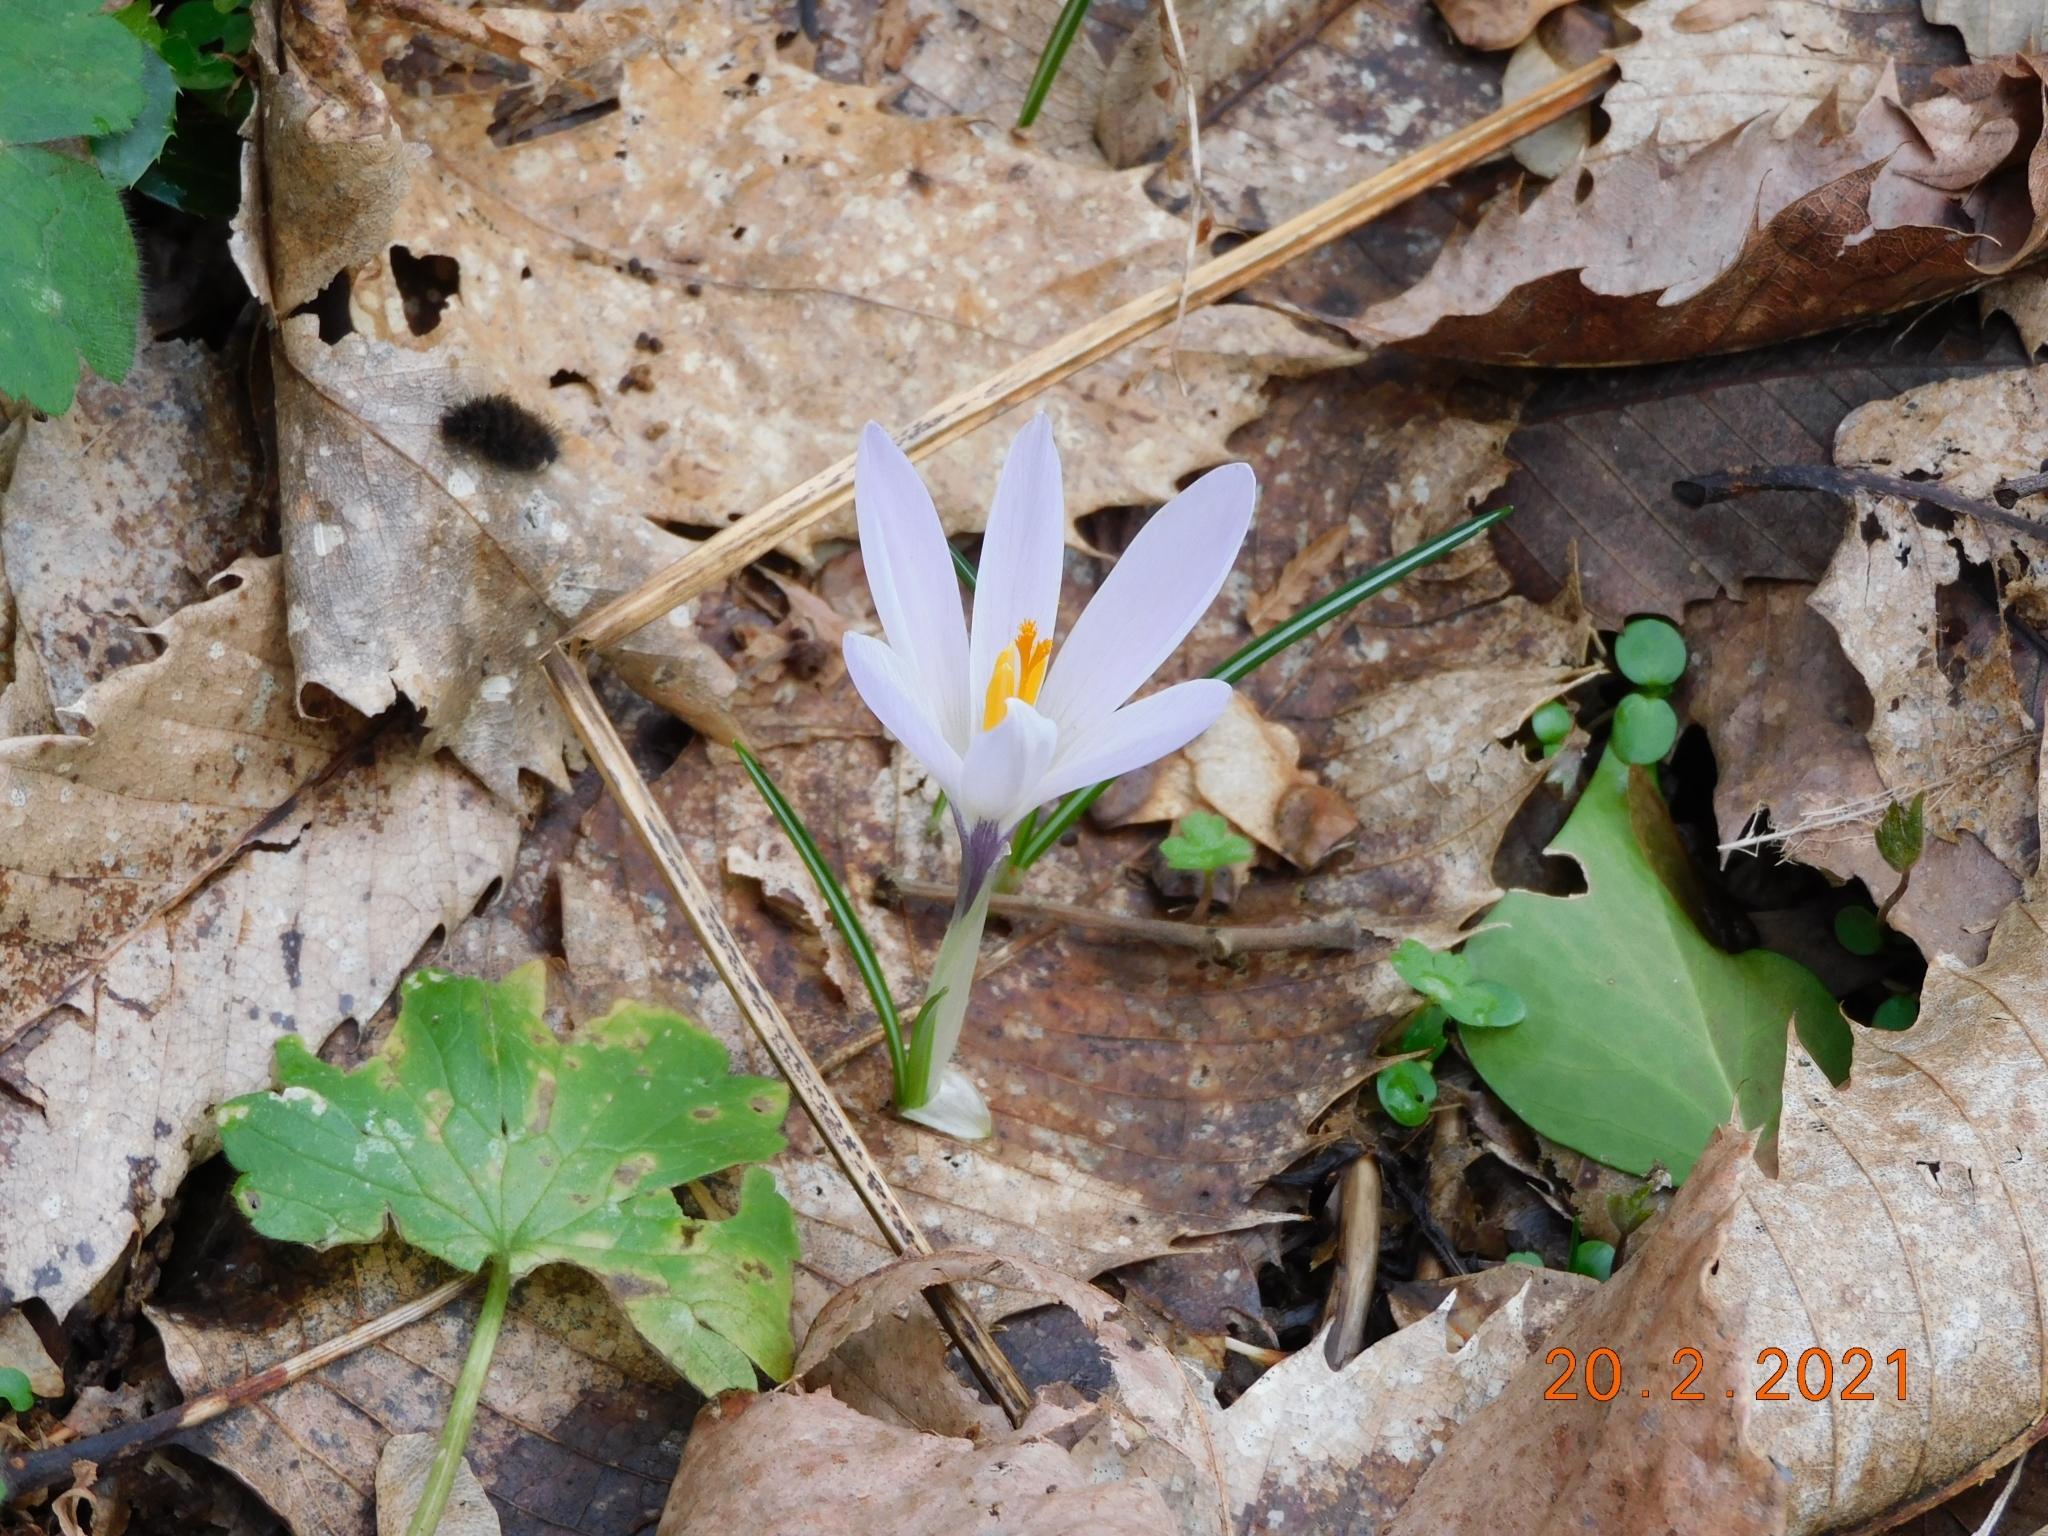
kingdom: Plantae
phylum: Tracheophyta
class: Liliopsida
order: Asparagales
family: Iridaceae
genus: Crocus
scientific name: Crocus tommasinianus
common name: Early crocus
